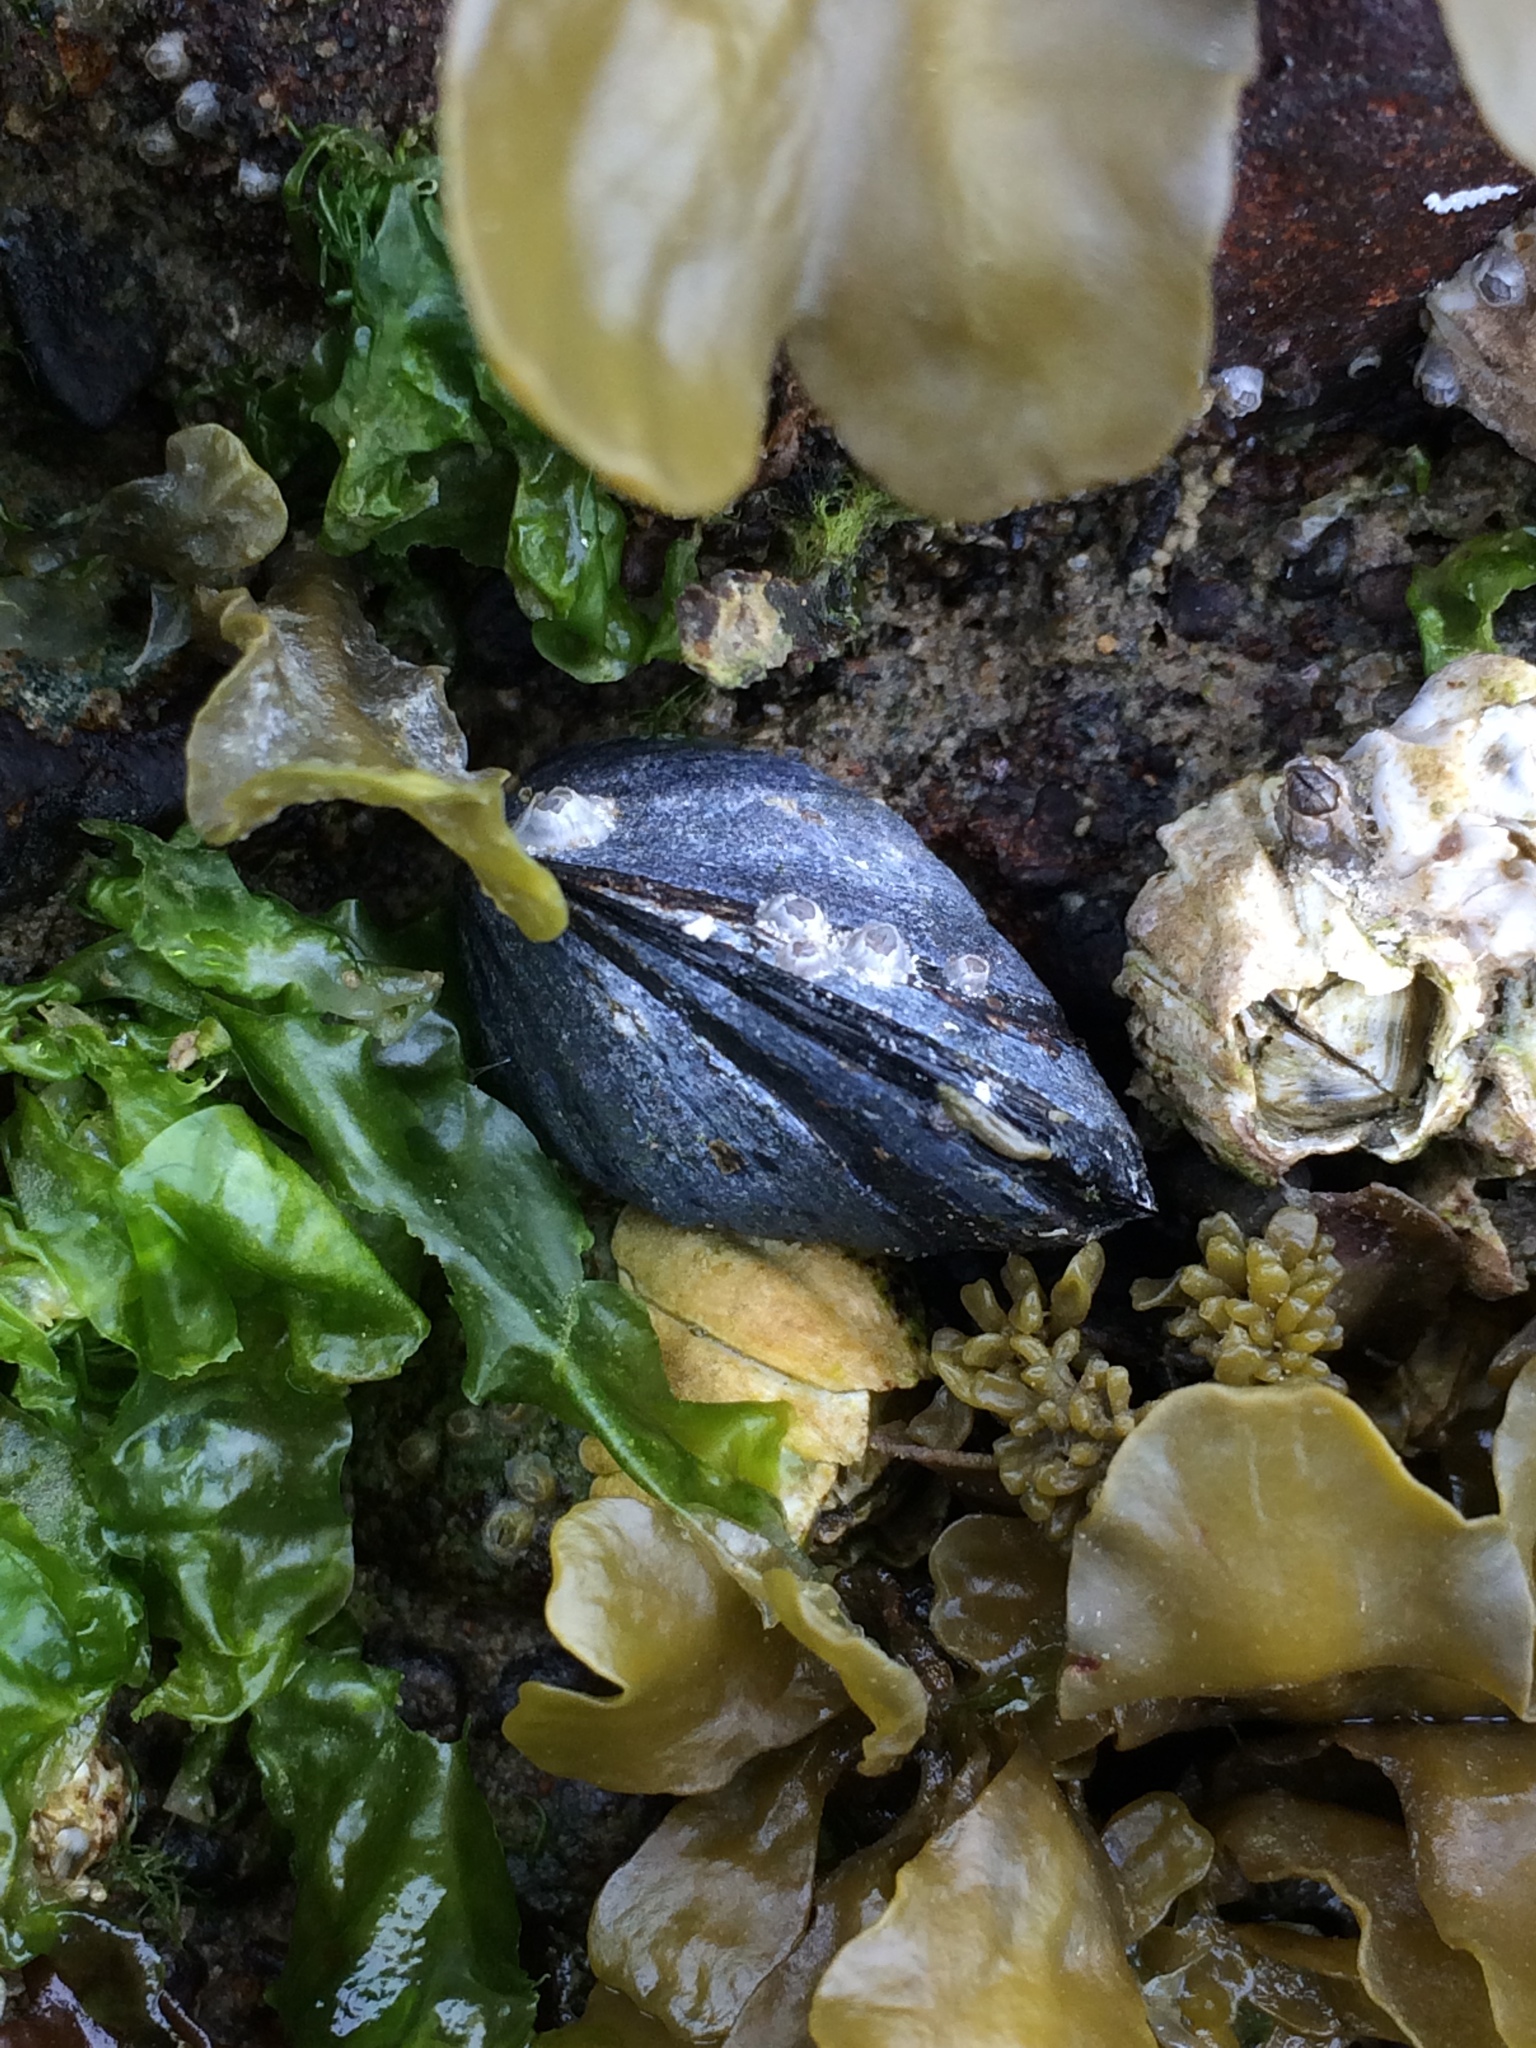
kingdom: Animalia
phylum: Mollusca
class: Bivalvia
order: Mytilida
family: Mytilidae
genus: Mytilus
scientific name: Mytilus californianus
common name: California mussel
